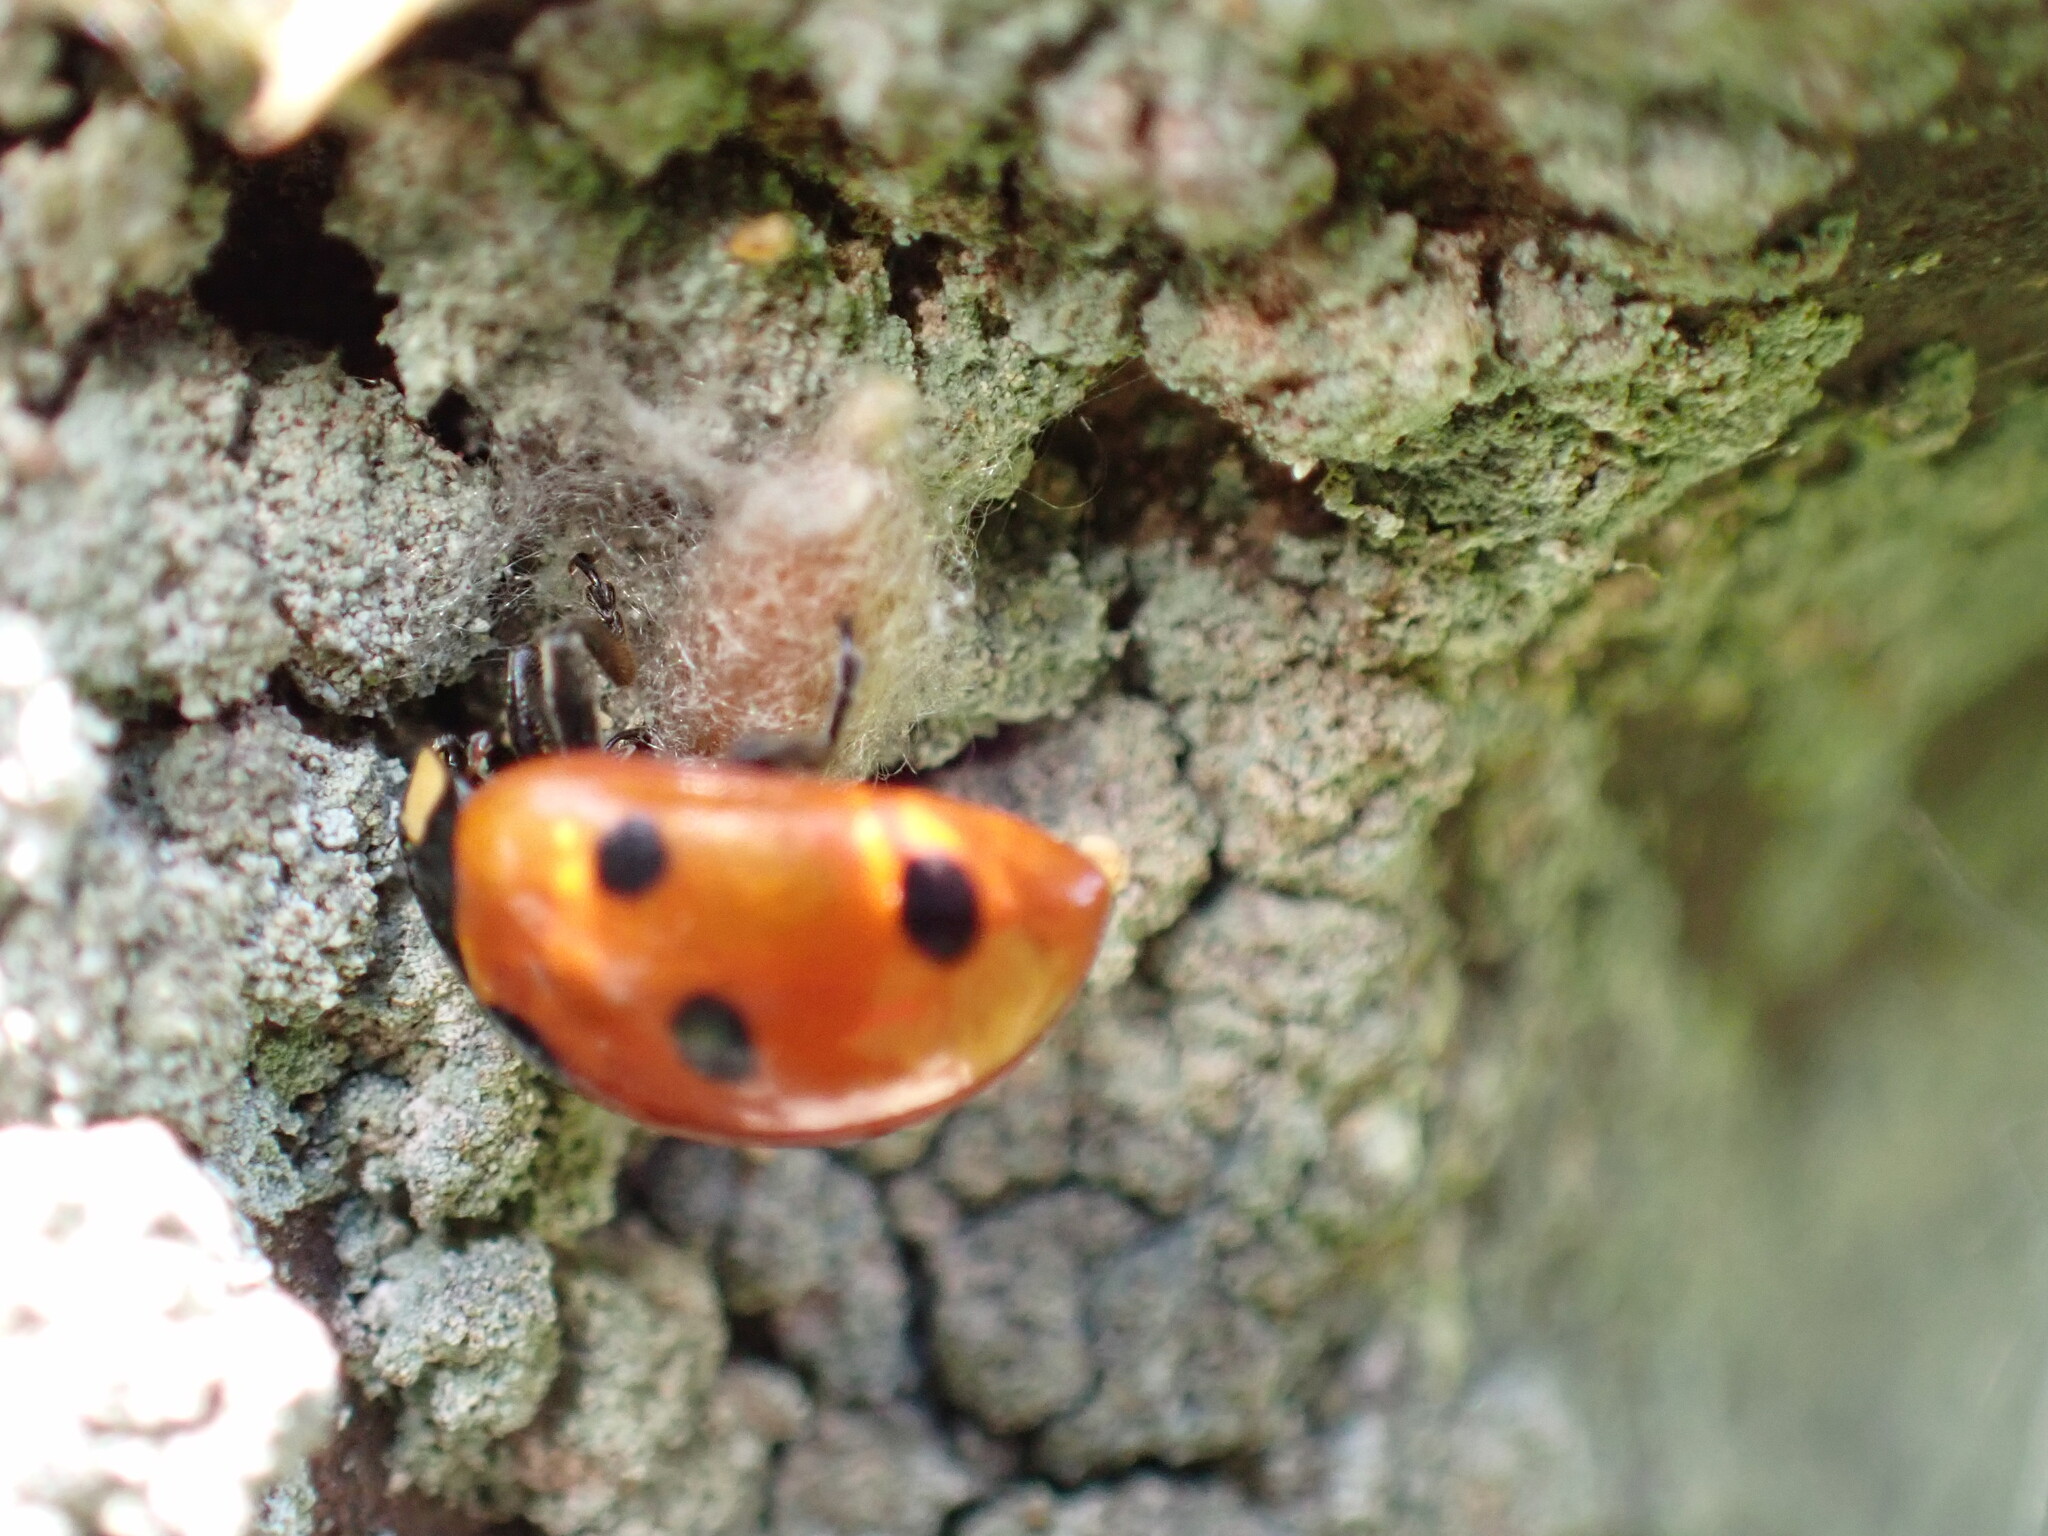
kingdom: Animalia
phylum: Arthropoda
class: Insecta
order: Hymenoptera
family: Braconidae
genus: Dinocampus
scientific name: Dinocampus coccinellae
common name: Braconid wasp
